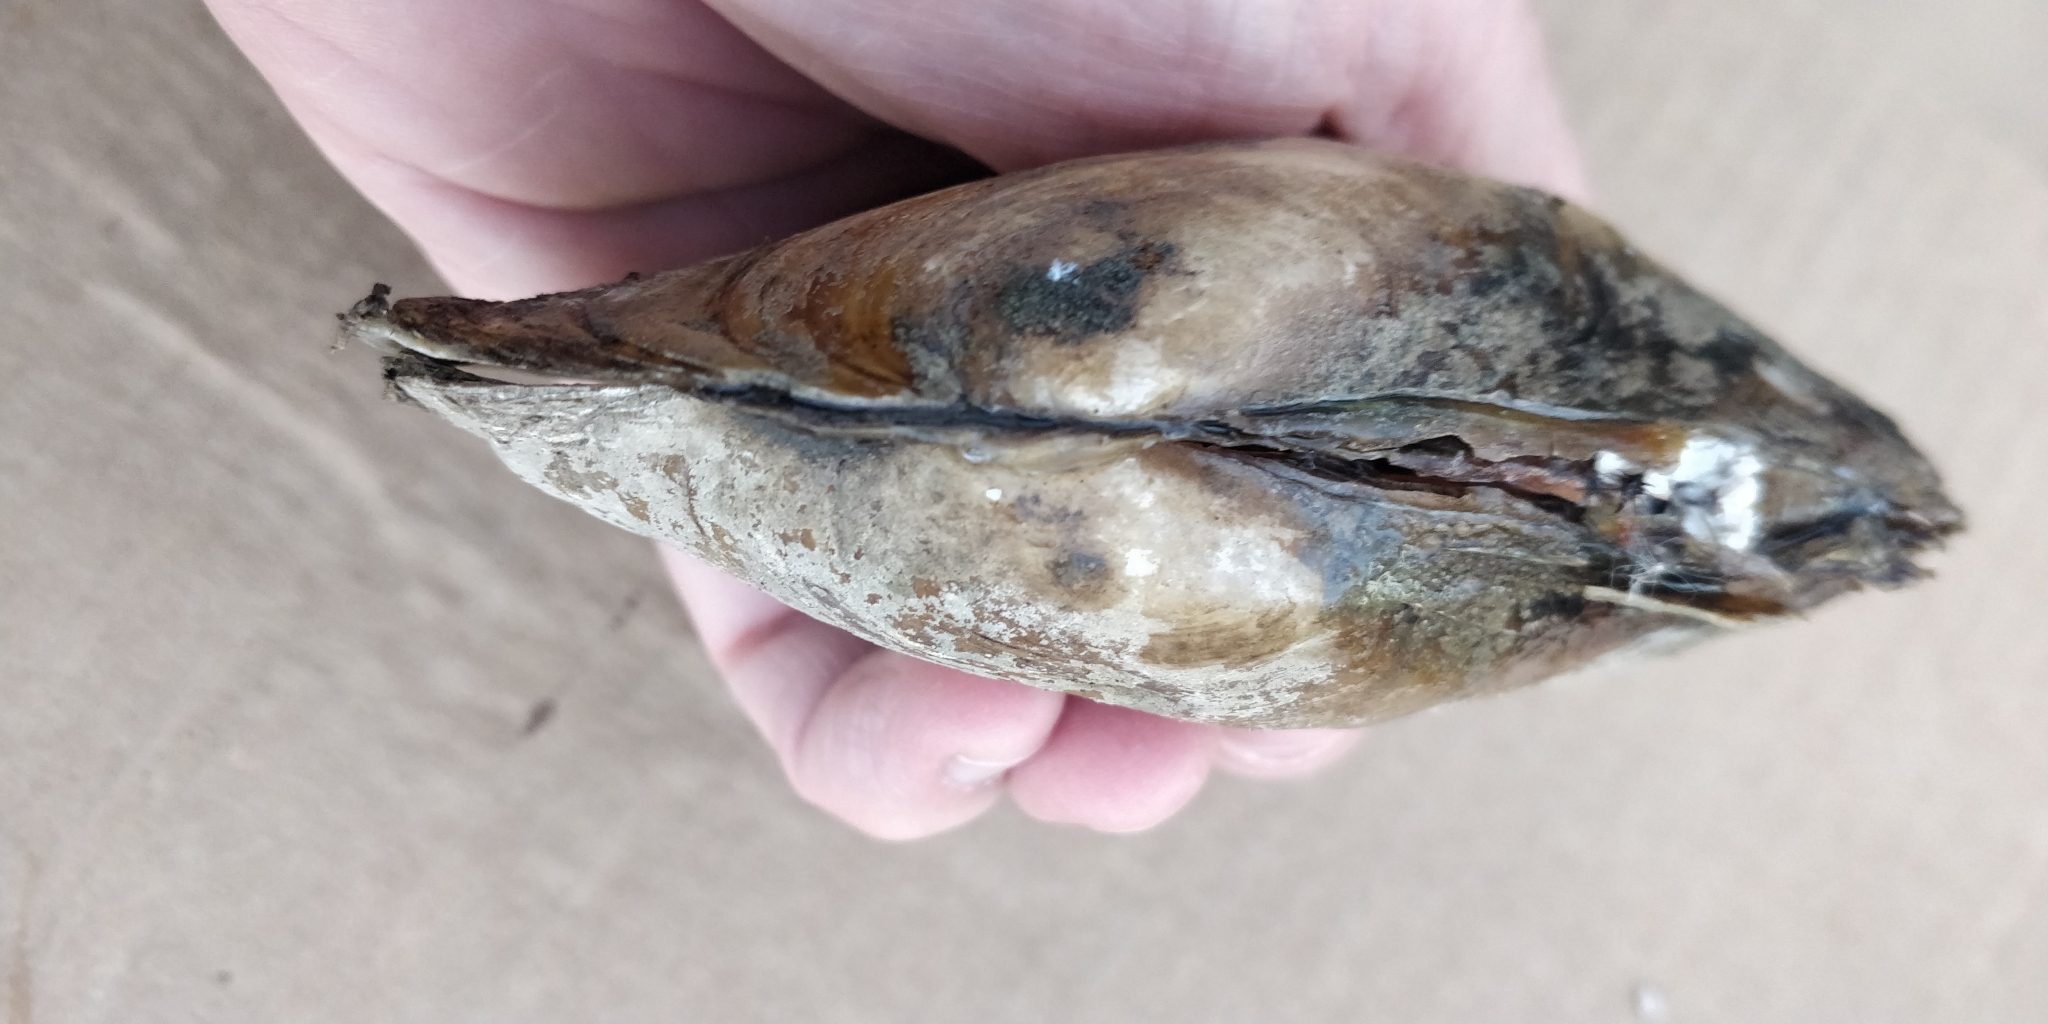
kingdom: Animalia
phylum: Mollusca
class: Bivalvia
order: Unionida
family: Unionidae
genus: Potamilus
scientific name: Potamilus fragilis
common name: Fragile papershell
